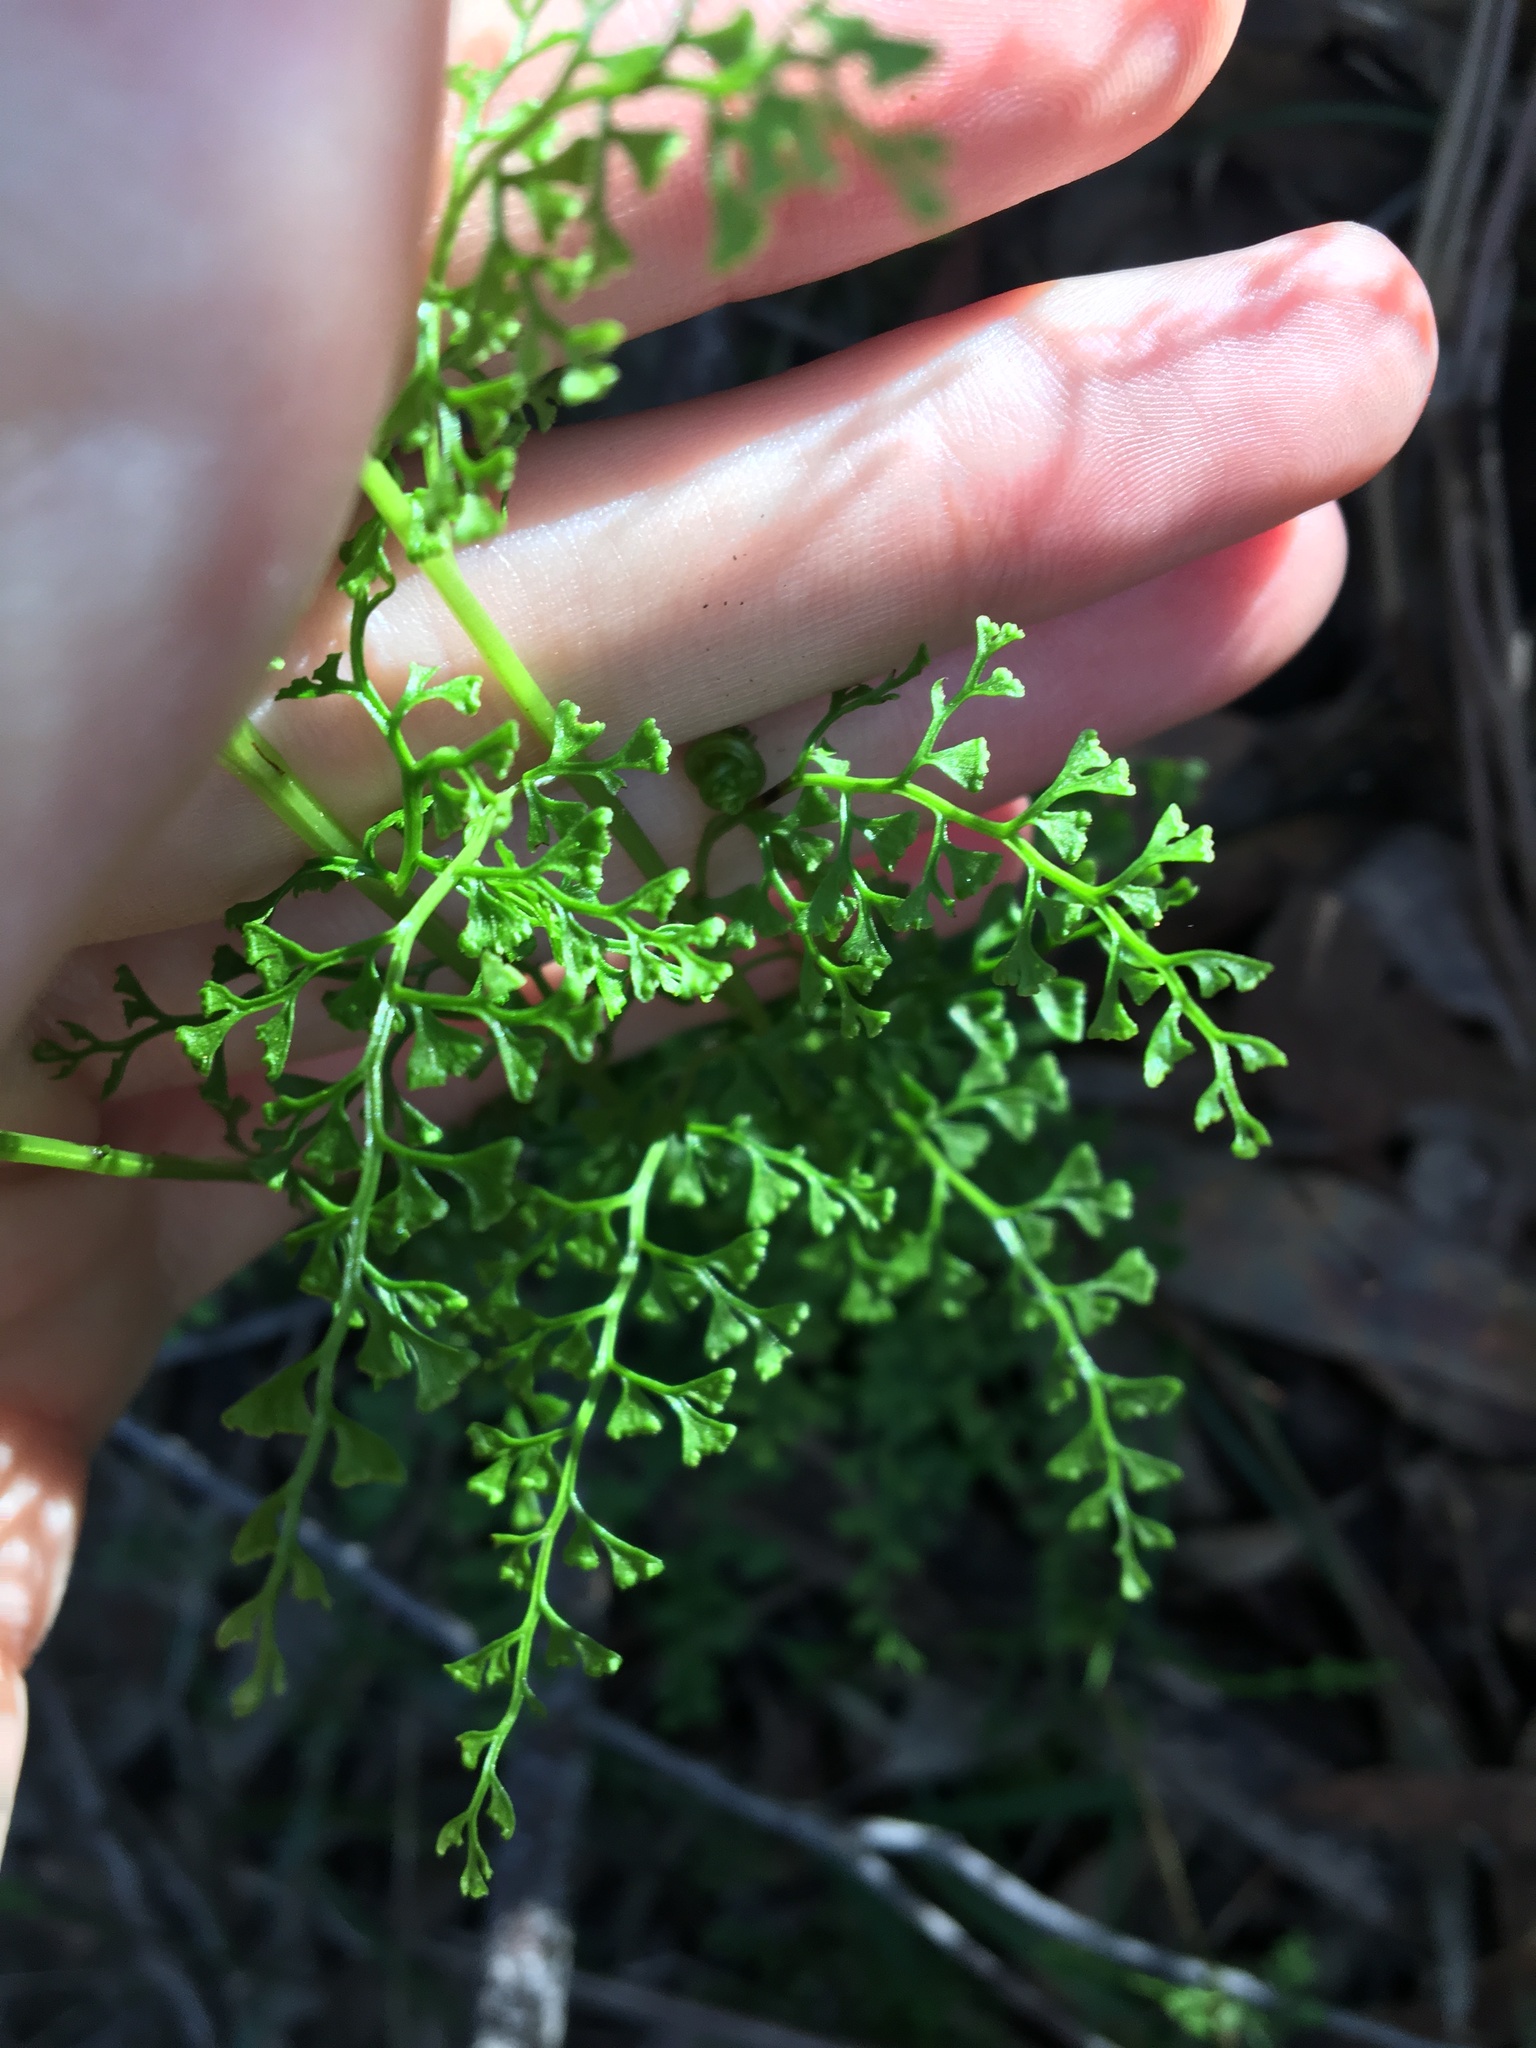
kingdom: Plantae
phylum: Tracheophyta
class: Polypodiopsida
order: Polypodiales
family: Lindsaeaceae
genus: Lindsaea
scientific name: Lindsaea microphylla
